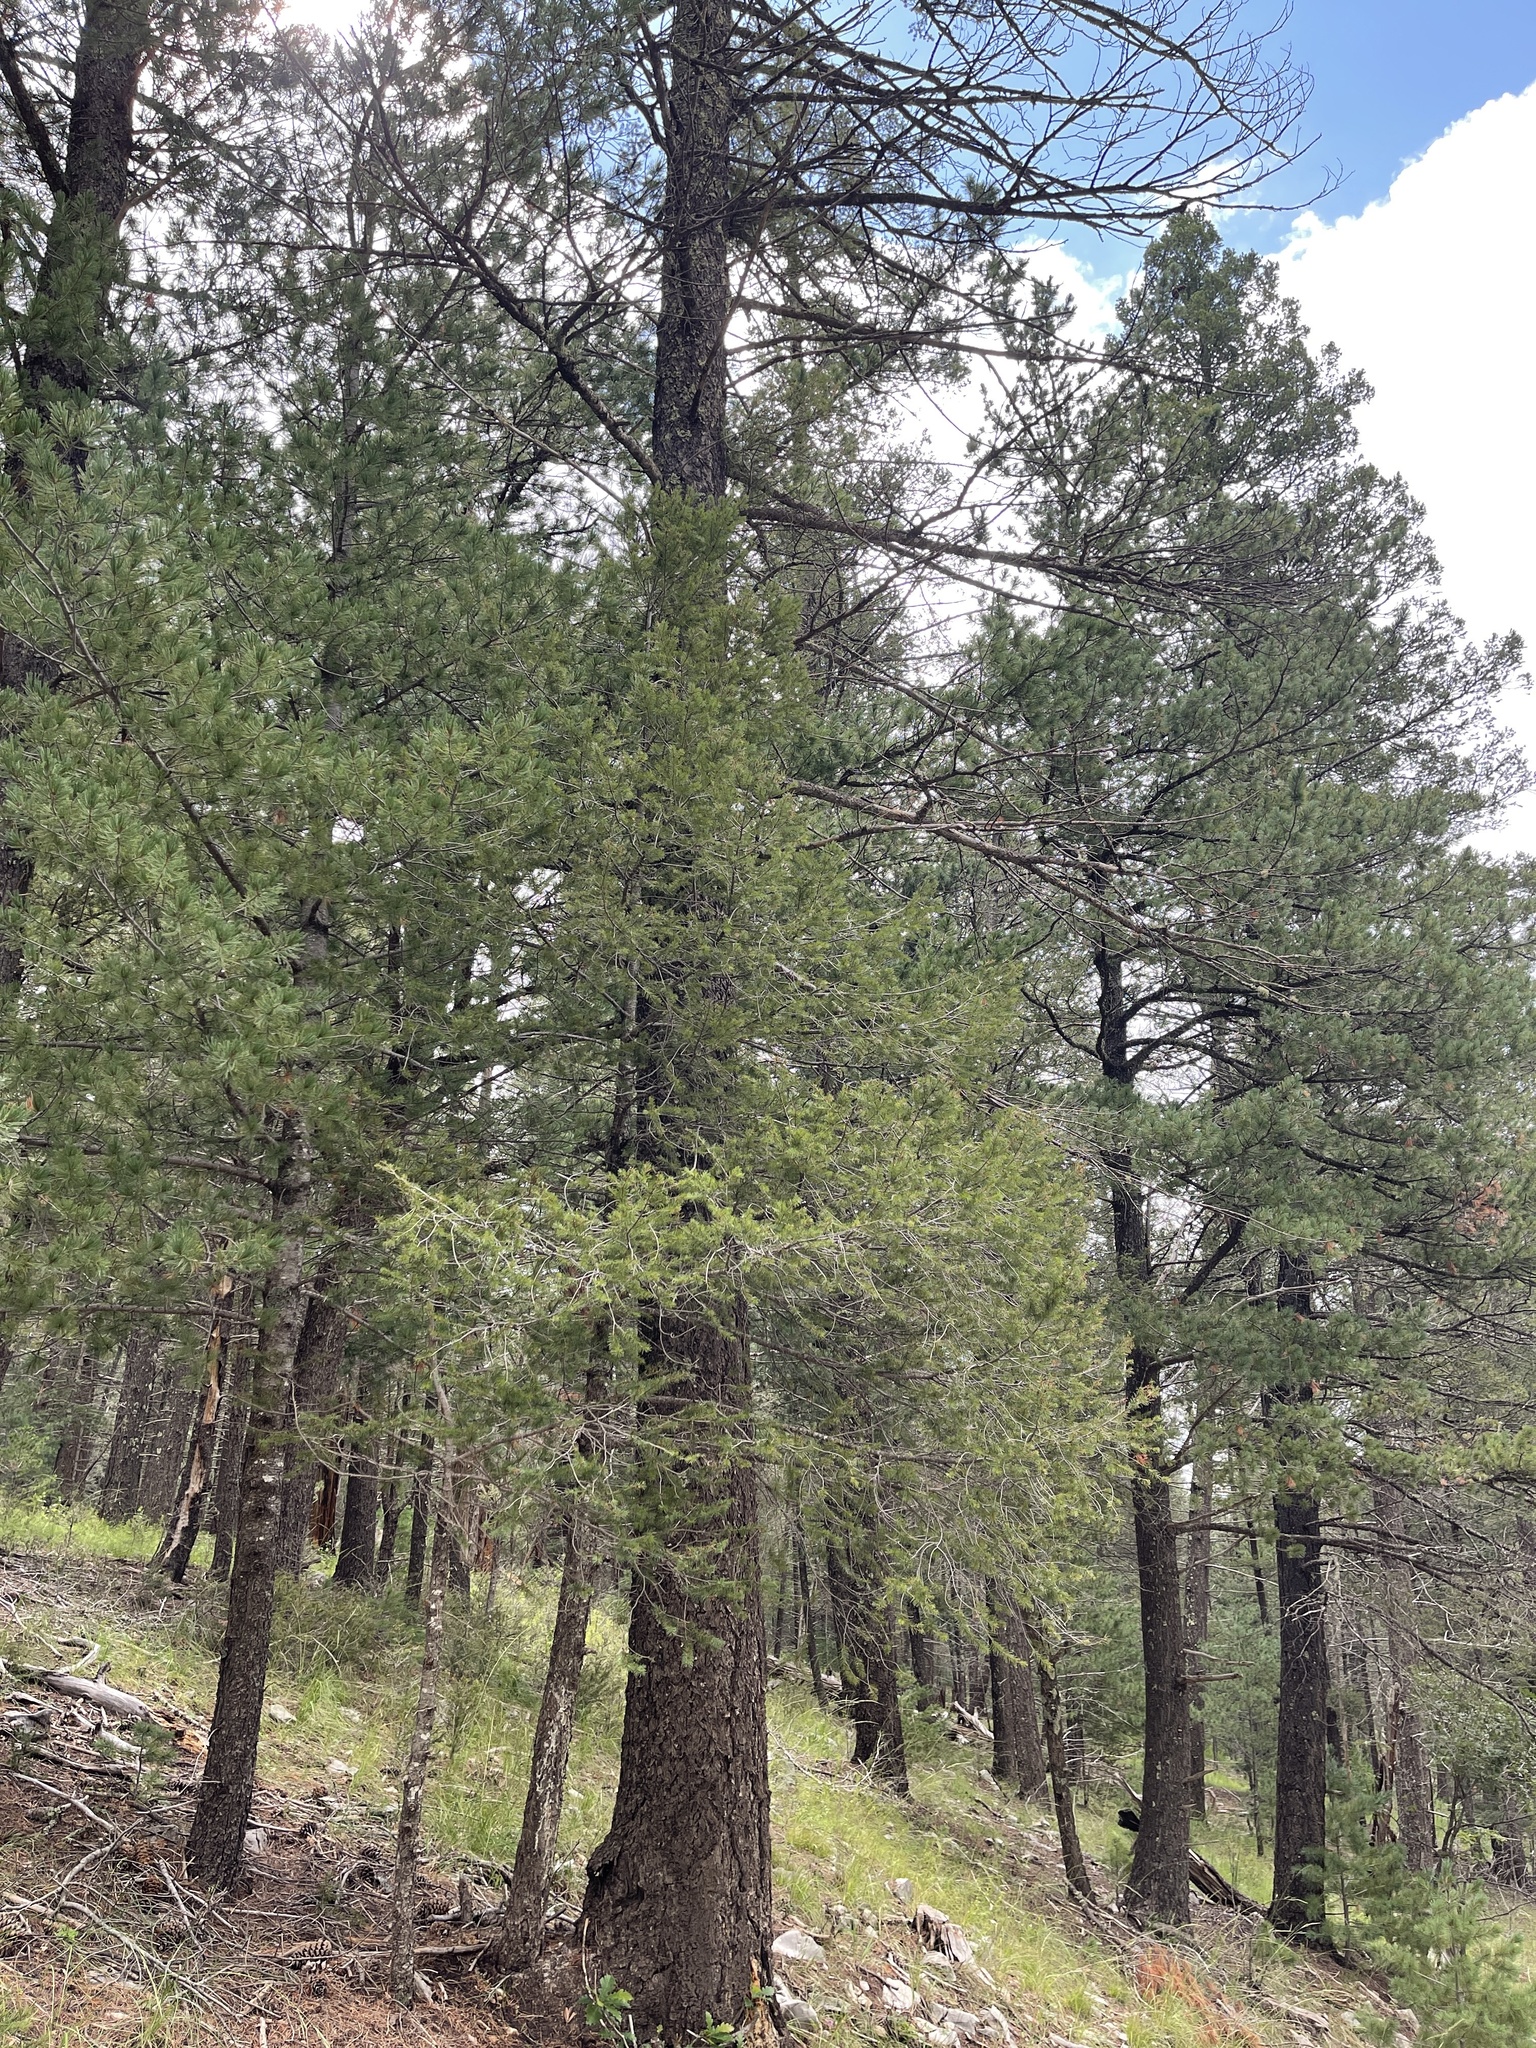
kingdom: Plantae
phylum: Tracheophyta
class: Pinopsida
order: Pinales
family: Pinaceae
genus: Pseudotsuga
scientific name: Pseudotsuga menziesii
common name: Douglas fir
